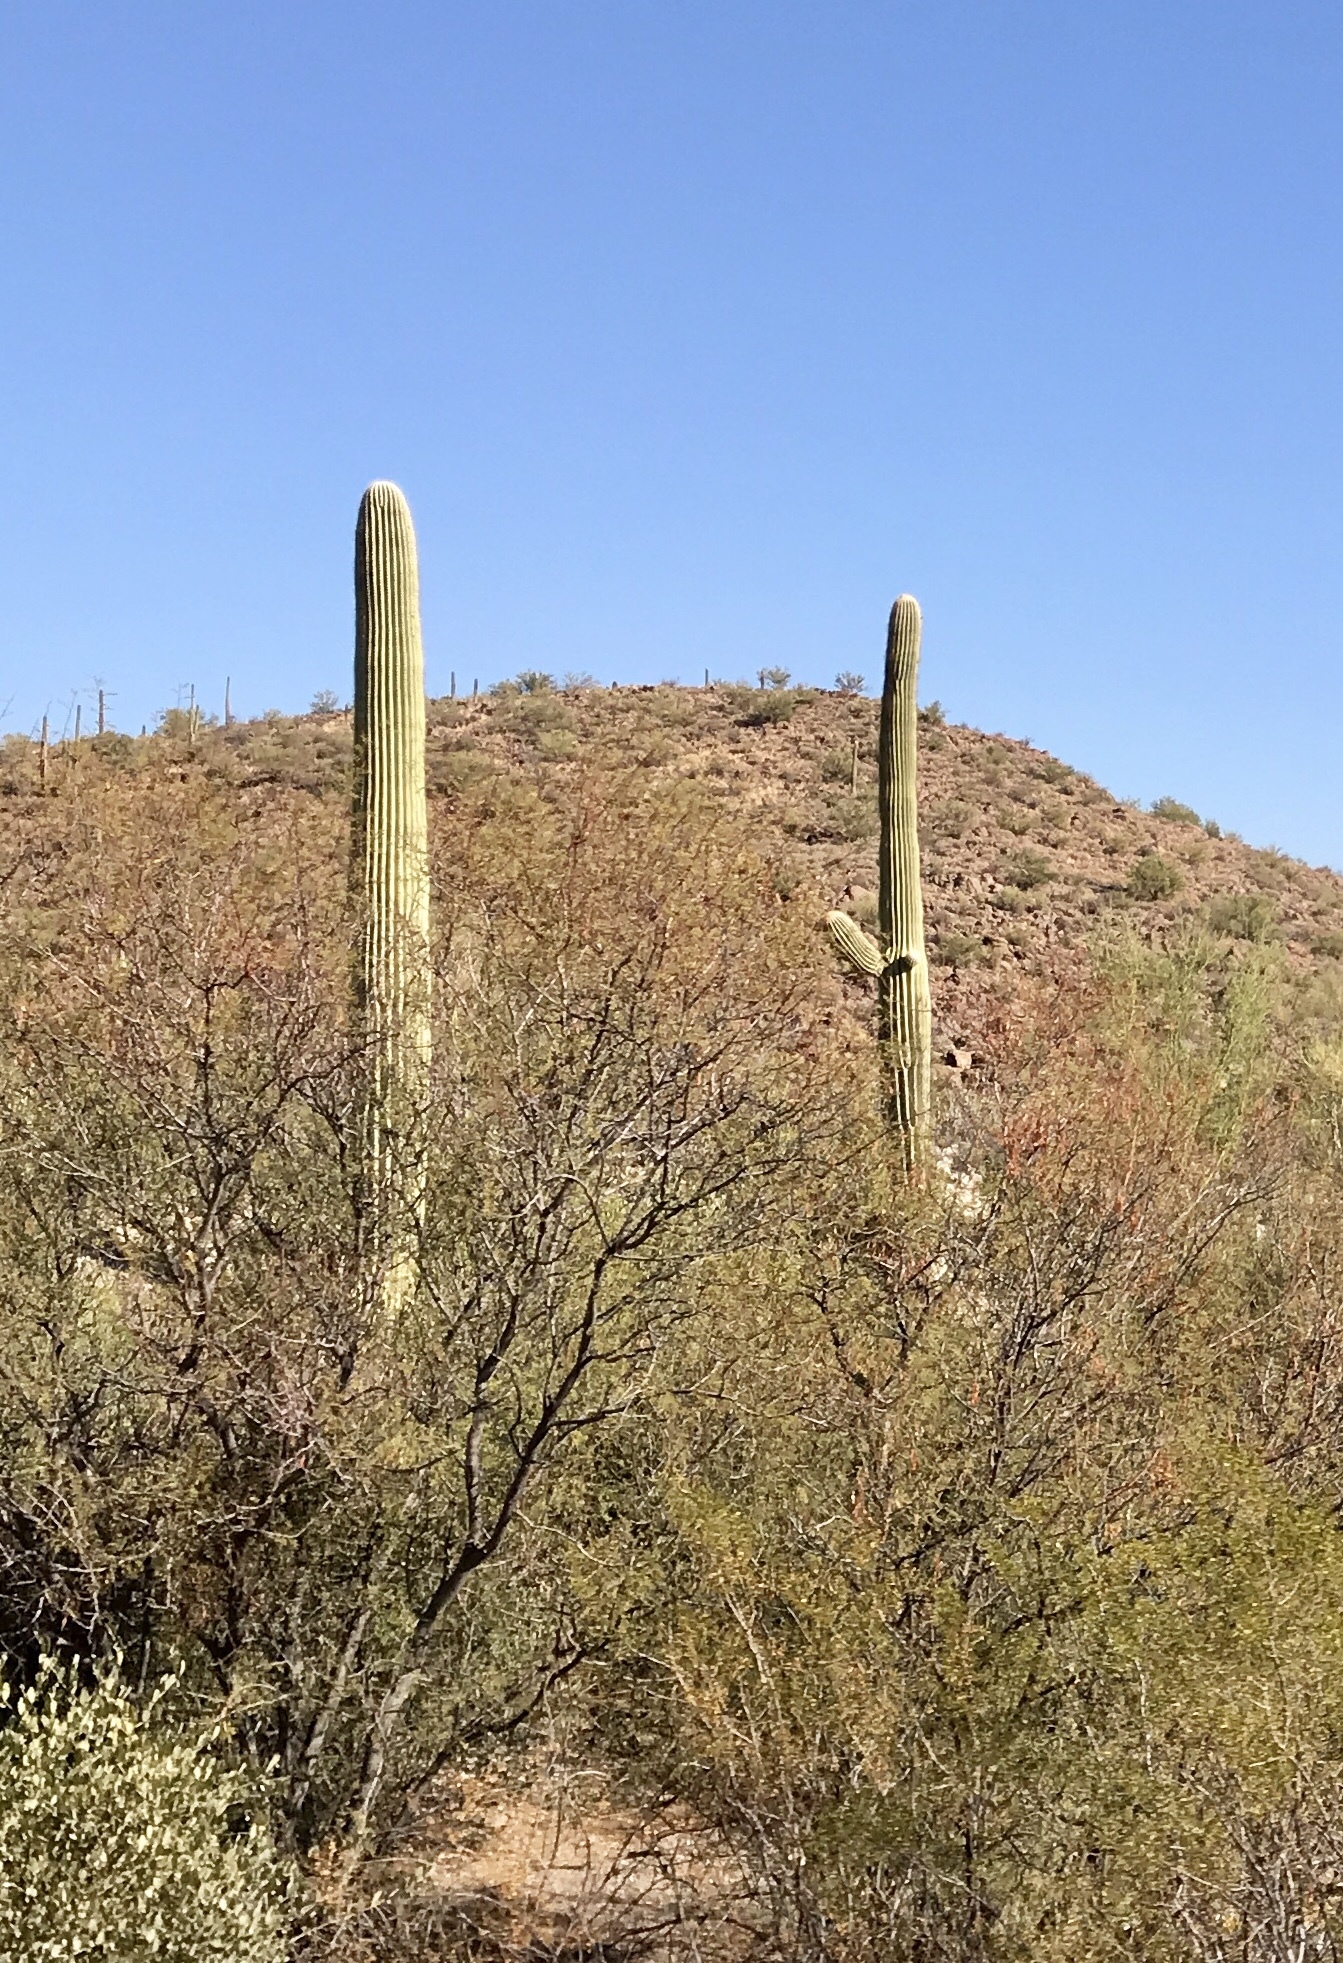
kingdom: Plantae
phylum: Tracheophyta
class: Magnoliopsida
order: Caryophyllales
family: Cactaceae
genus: Carnegiea
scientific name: Carnegiea gigantea
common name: Saguaro
